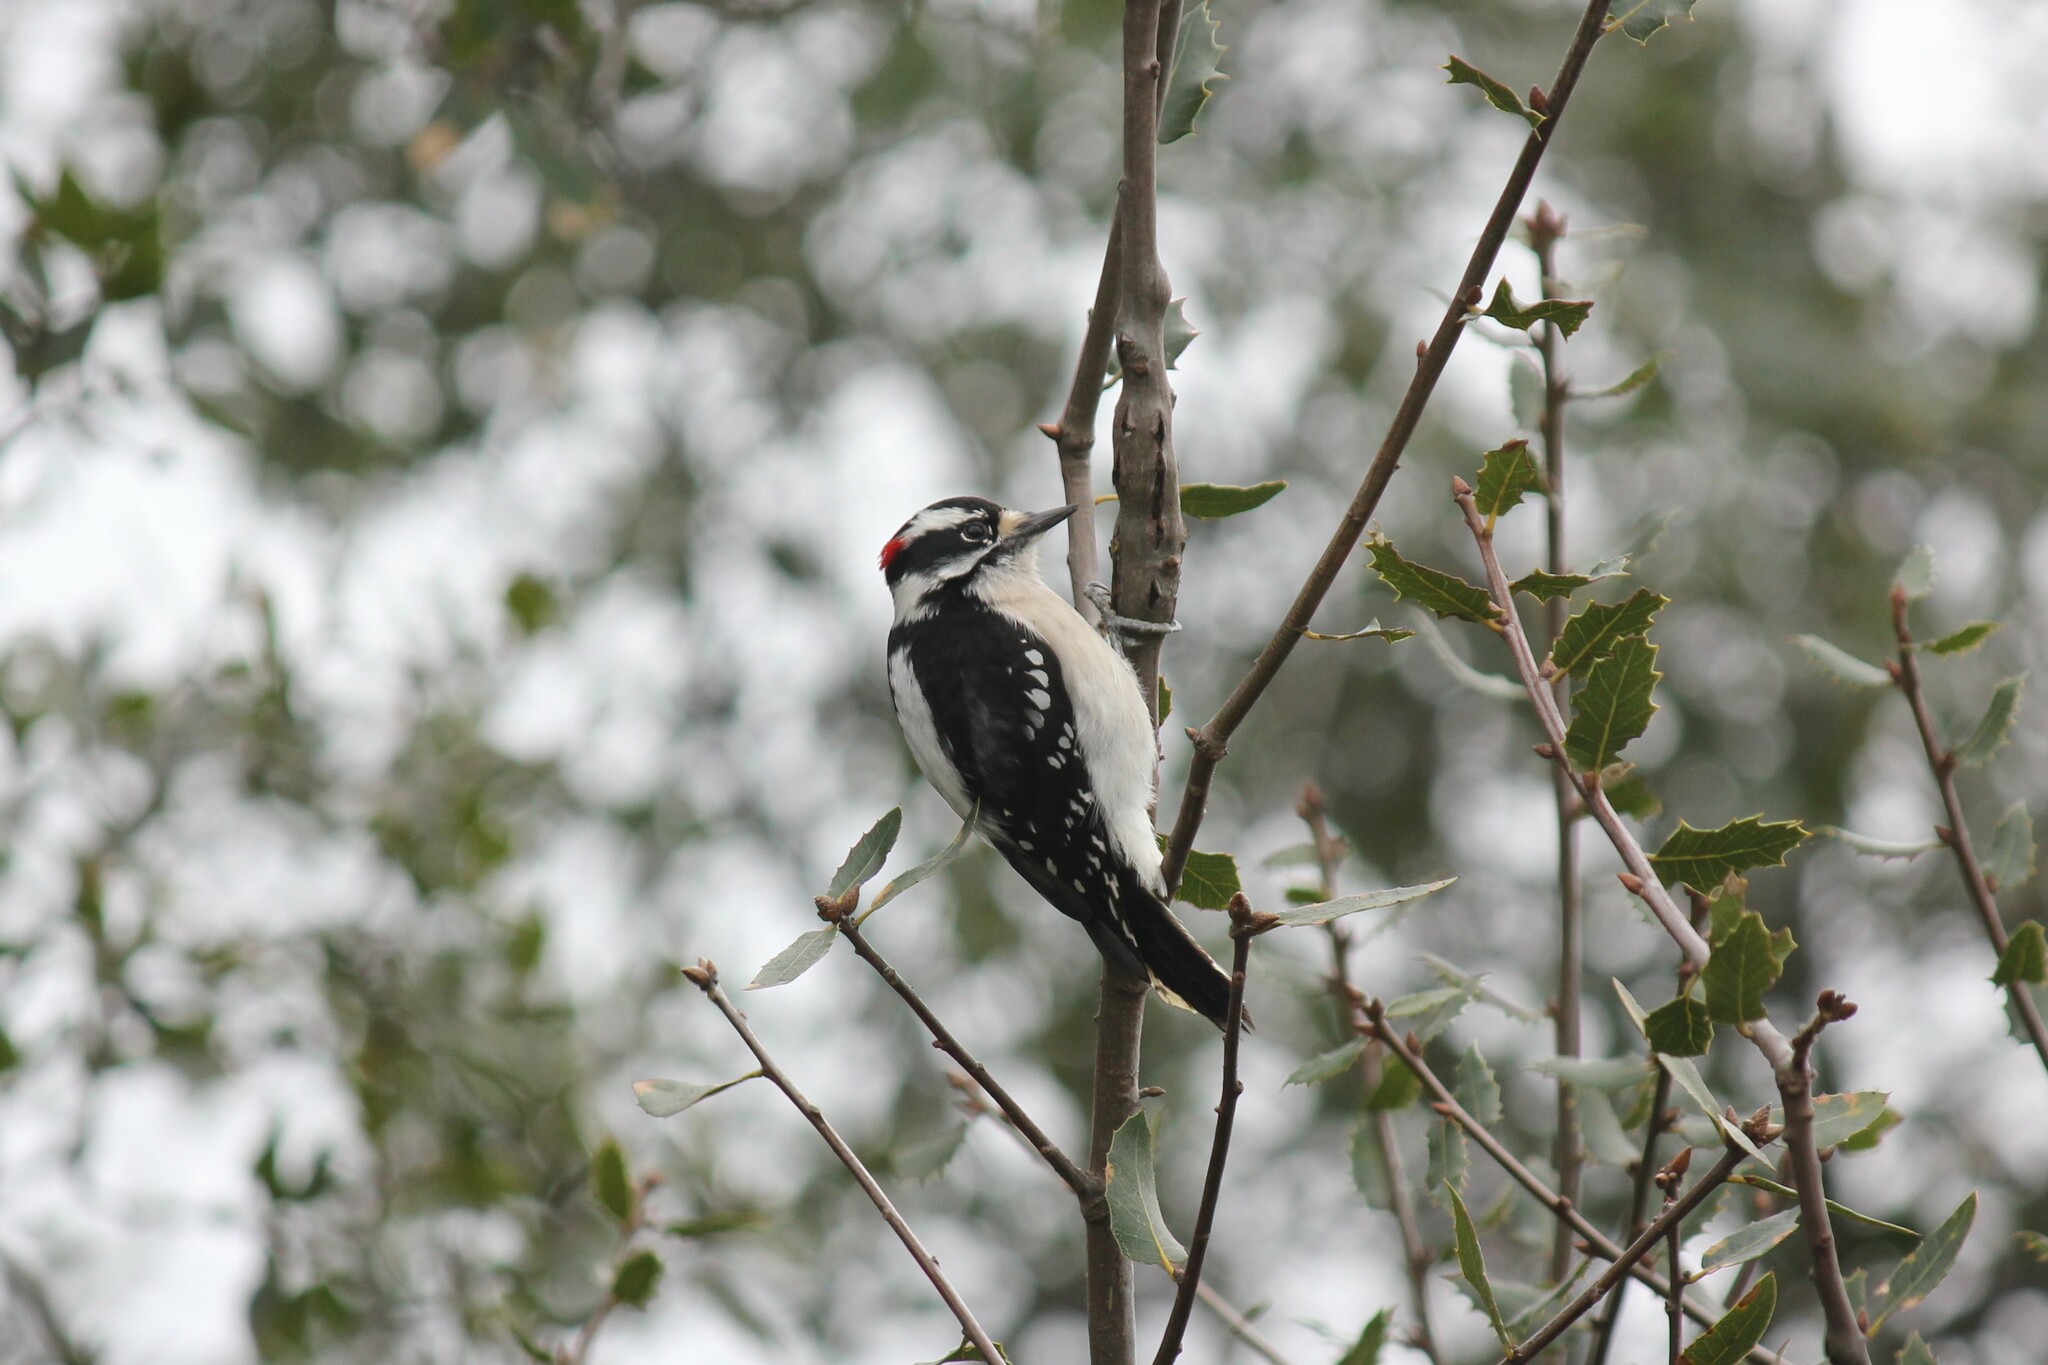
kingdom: Animalia
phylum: Chordata
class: Aves
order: Piciformes
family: Picidae
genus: Dryobates
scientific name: Dryobates pubescens
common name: Downy woodpecker
